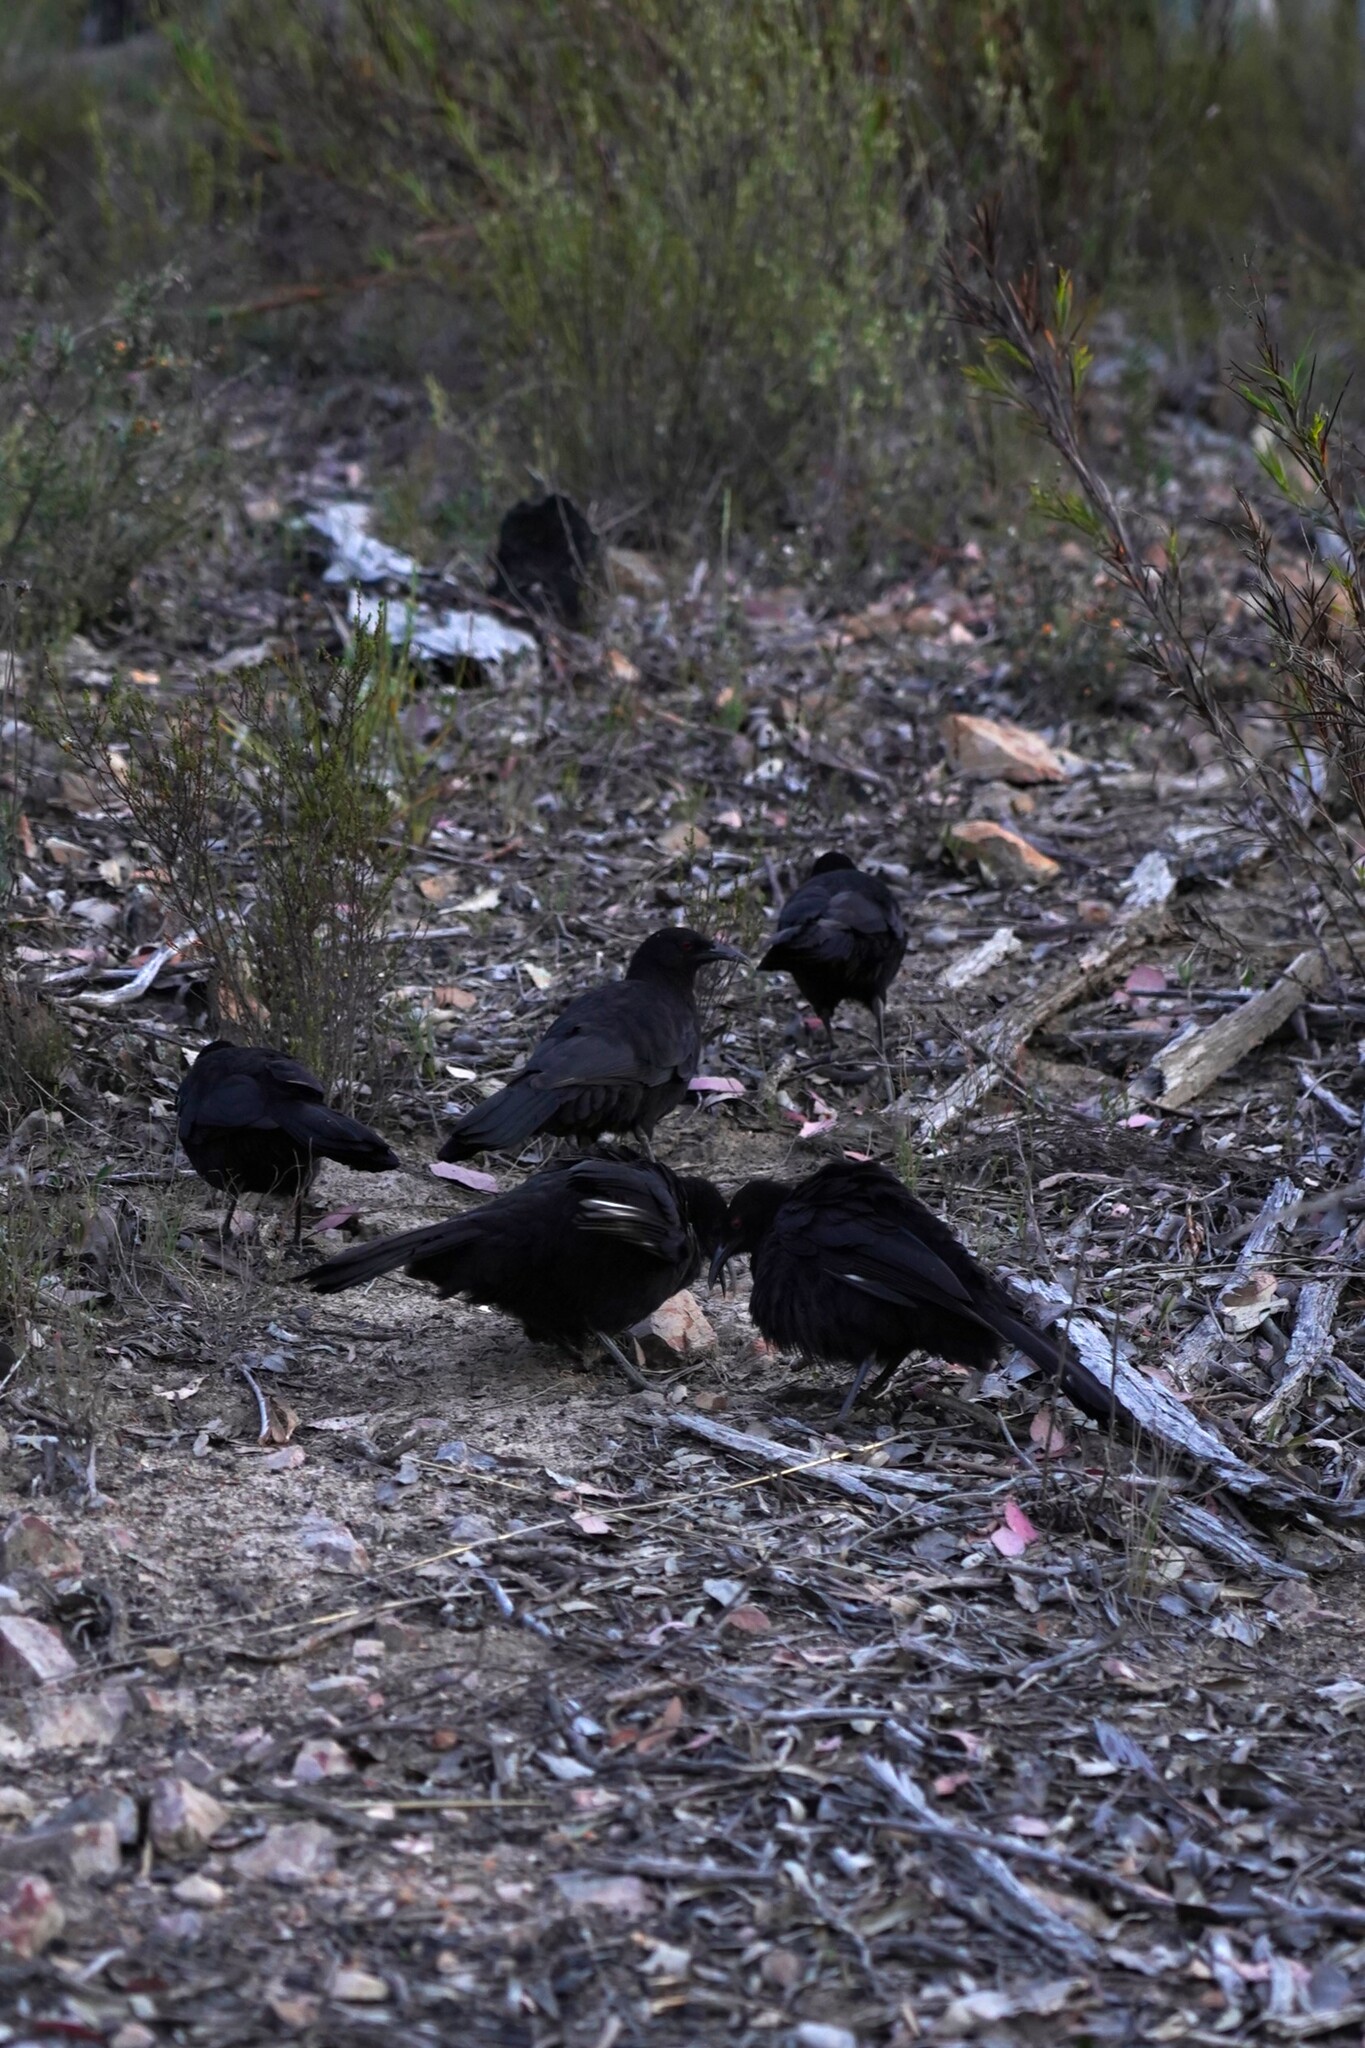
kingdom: Animalia
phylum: Chordata
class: Aves
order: Passeriformes
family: Corcoracidae
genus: Corcorax
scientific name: Corcorax melanoramphos
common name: White-winged chough
